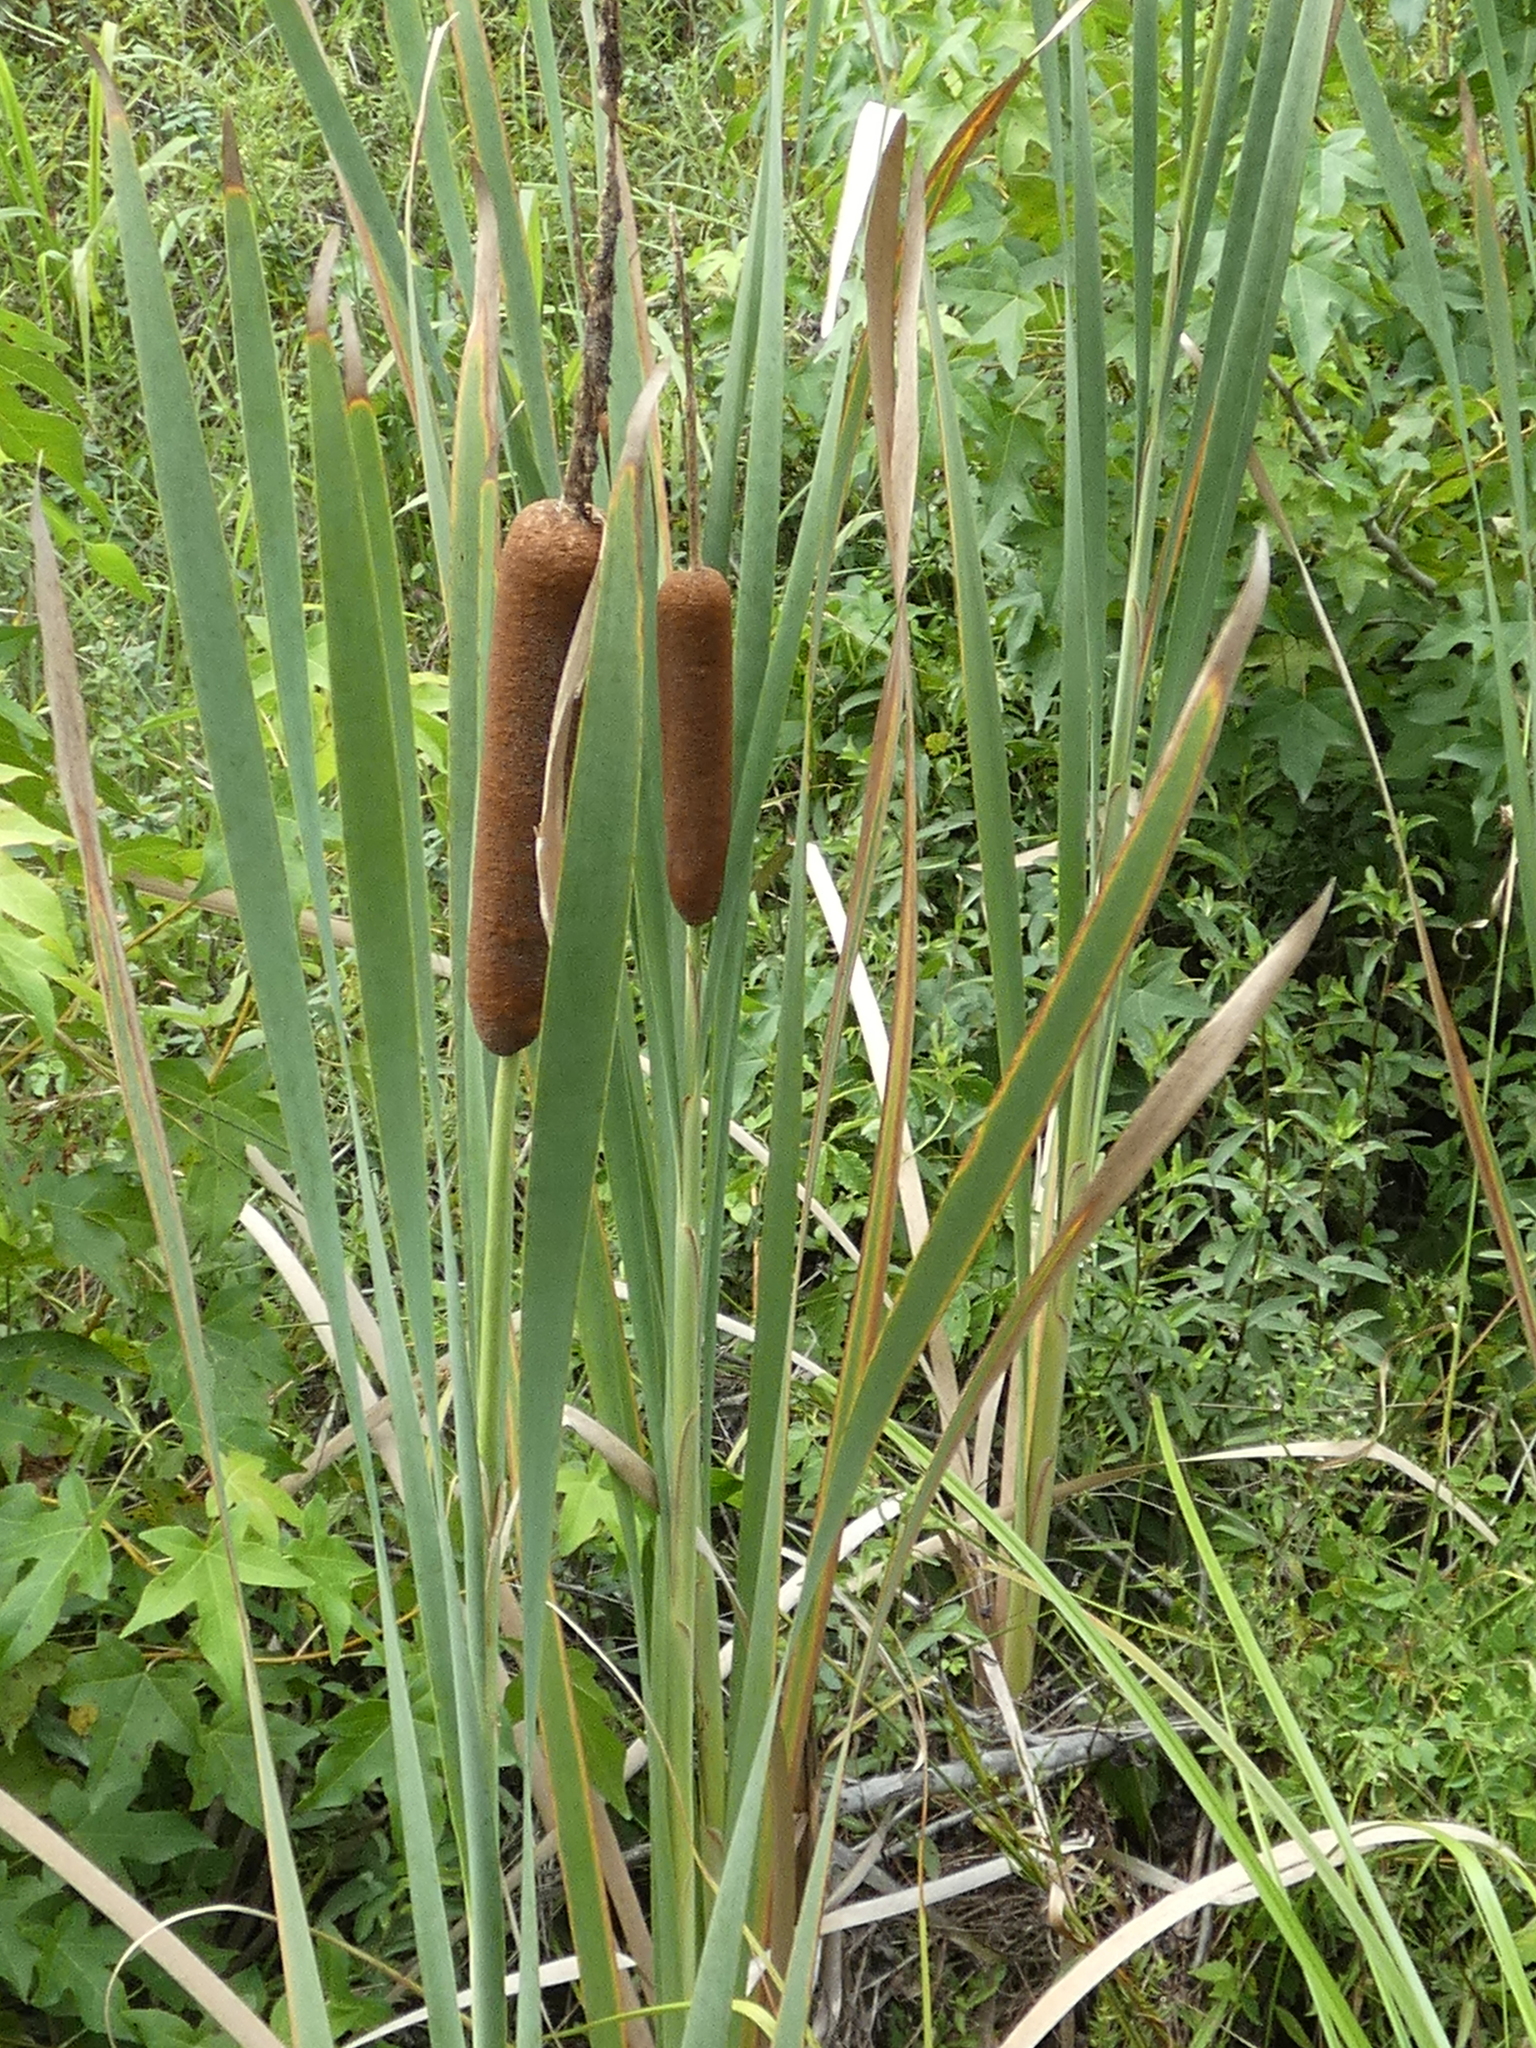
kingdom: Plantae
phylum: Tracheophyta
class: Liliopsida
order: Poales
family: Typhaceae
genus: Typha
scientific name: Typha latifolia
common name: Broadleaf cattail
